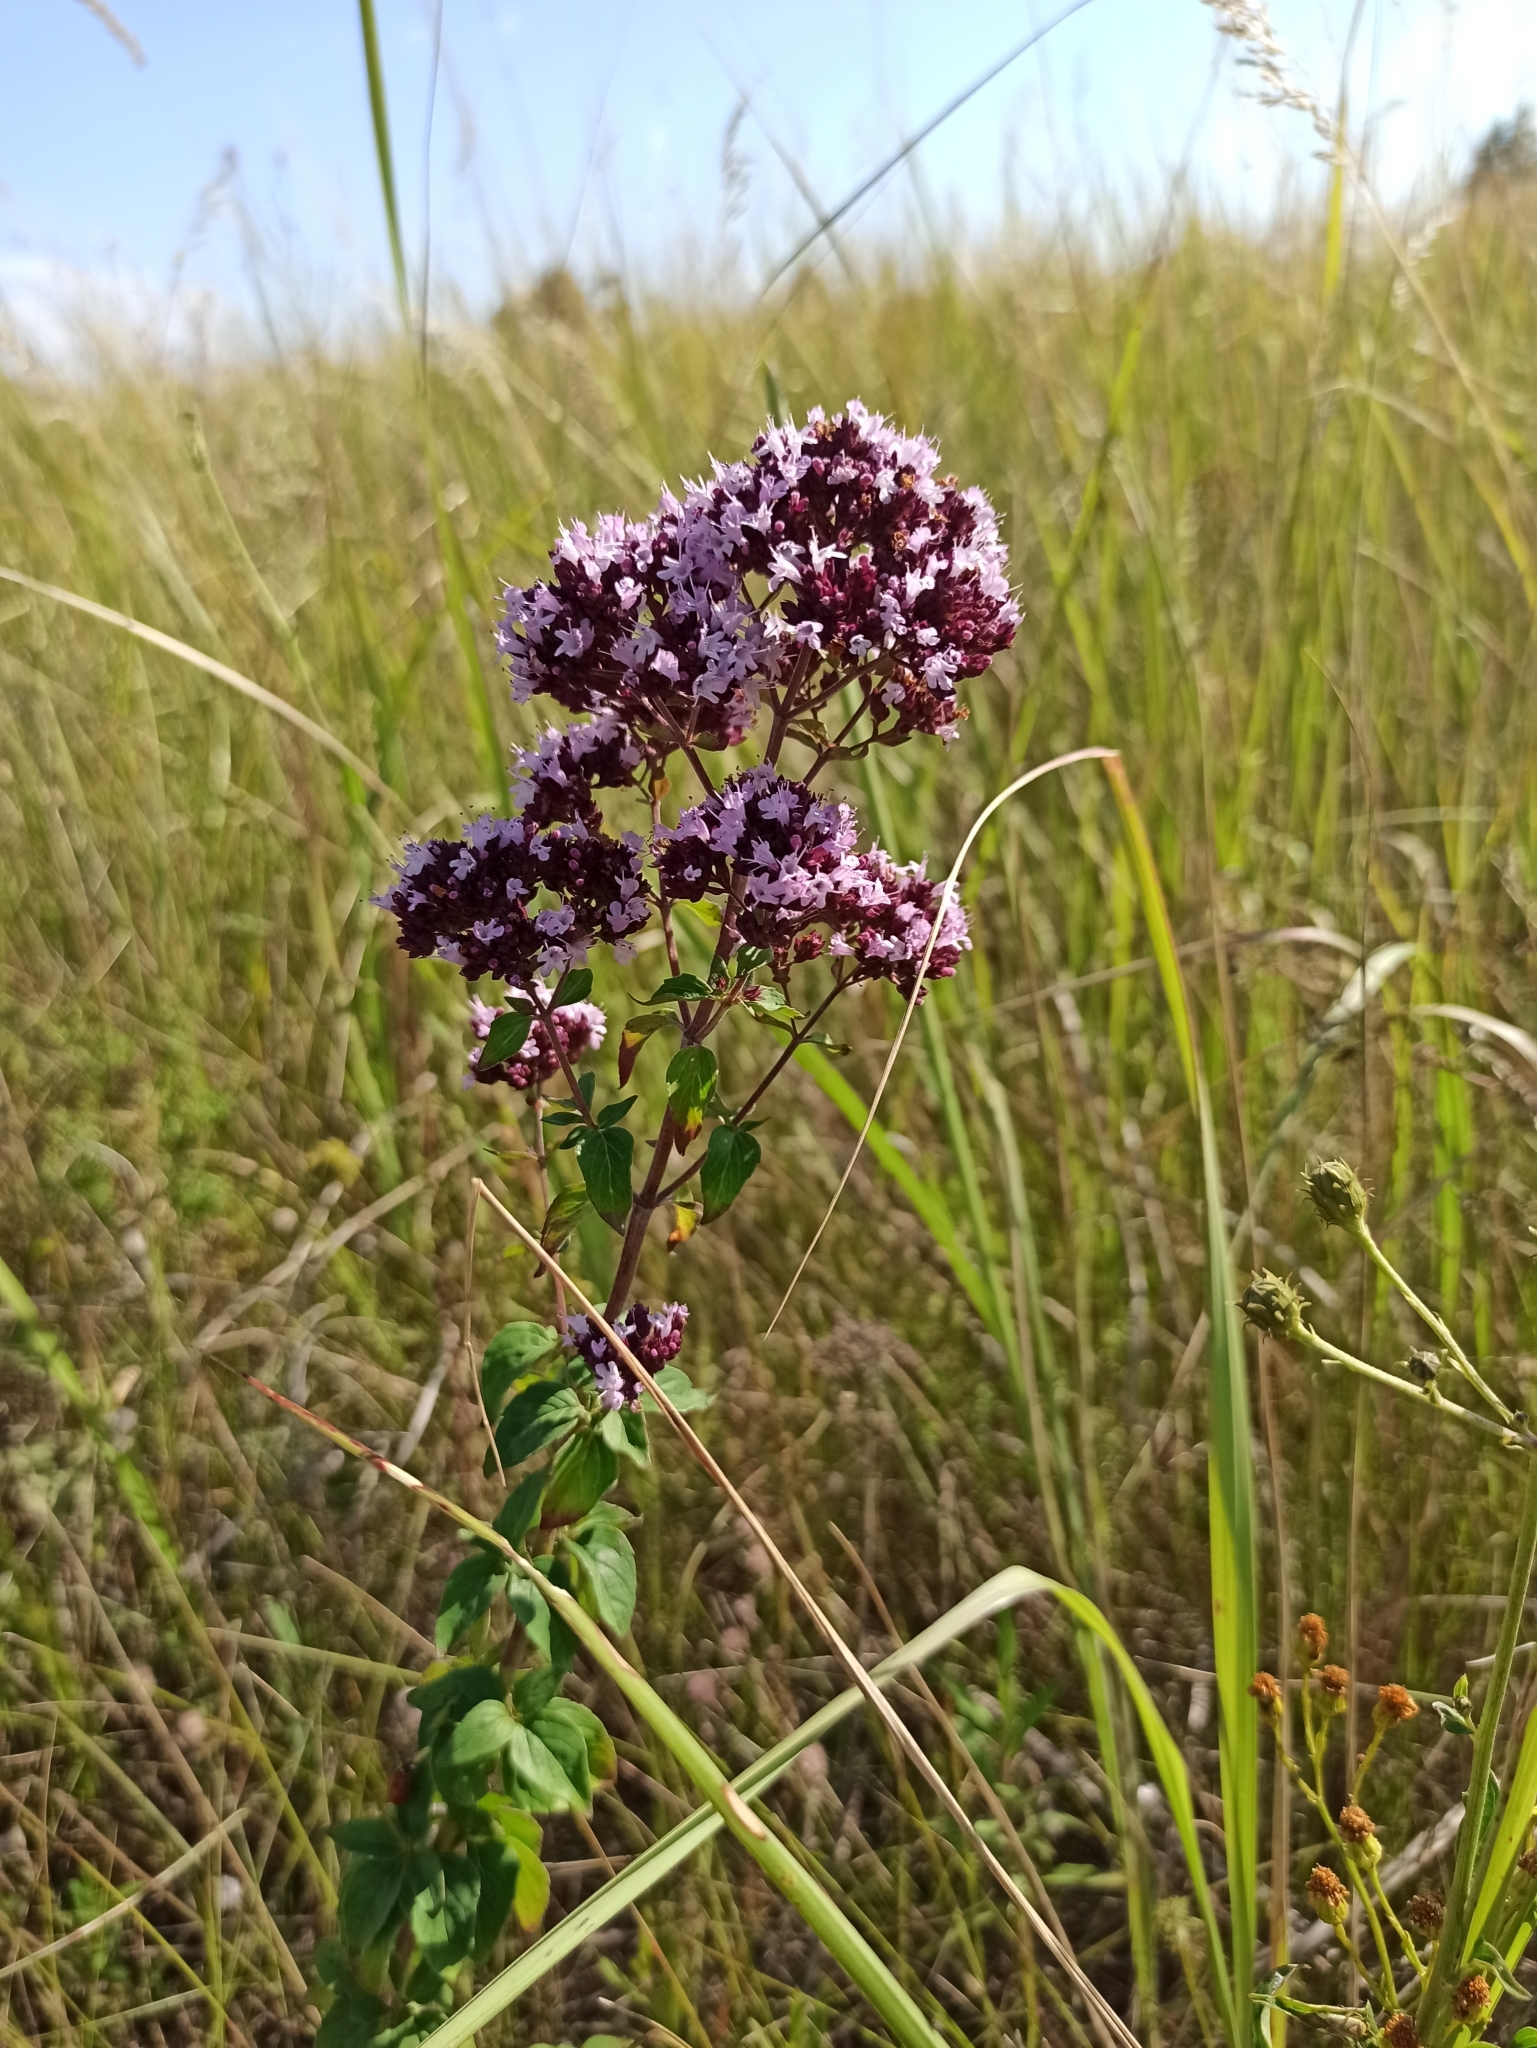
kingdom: Plantae
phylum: Tracheophyta
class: Magnoliopsida
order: Lamiales
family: Lamiaceae
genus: Origanum
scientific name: Origanum vulgare
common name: Wild marjoram
